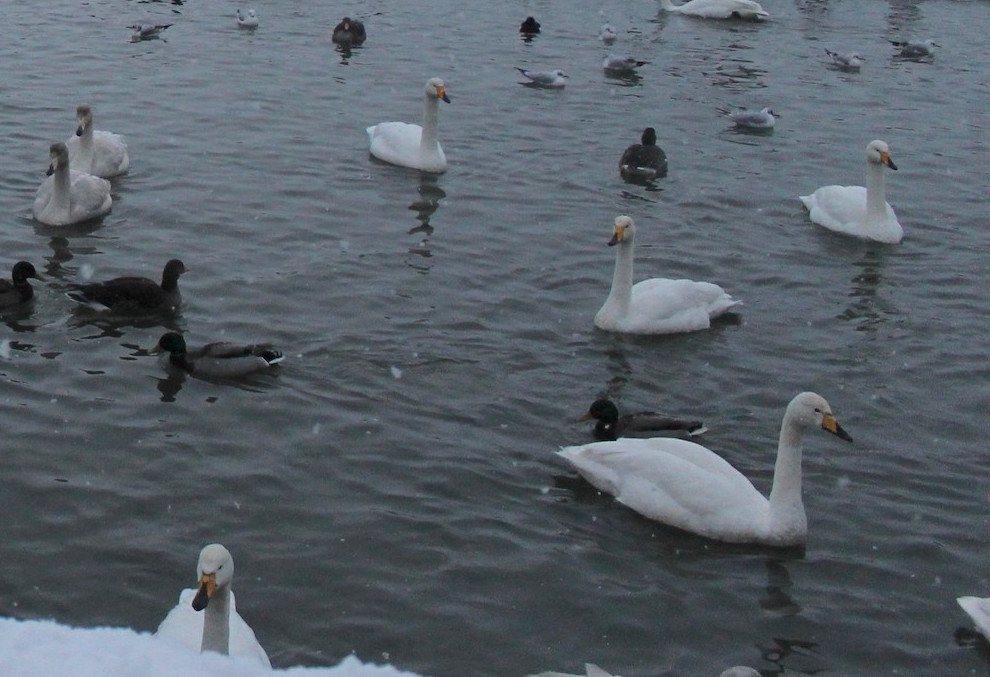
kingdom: Animalia
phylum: Chordata
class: Aves
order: Anseriformes
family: Anatidae
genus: Cygnus
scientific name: Cygnus cygnus
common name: Whooper swan
